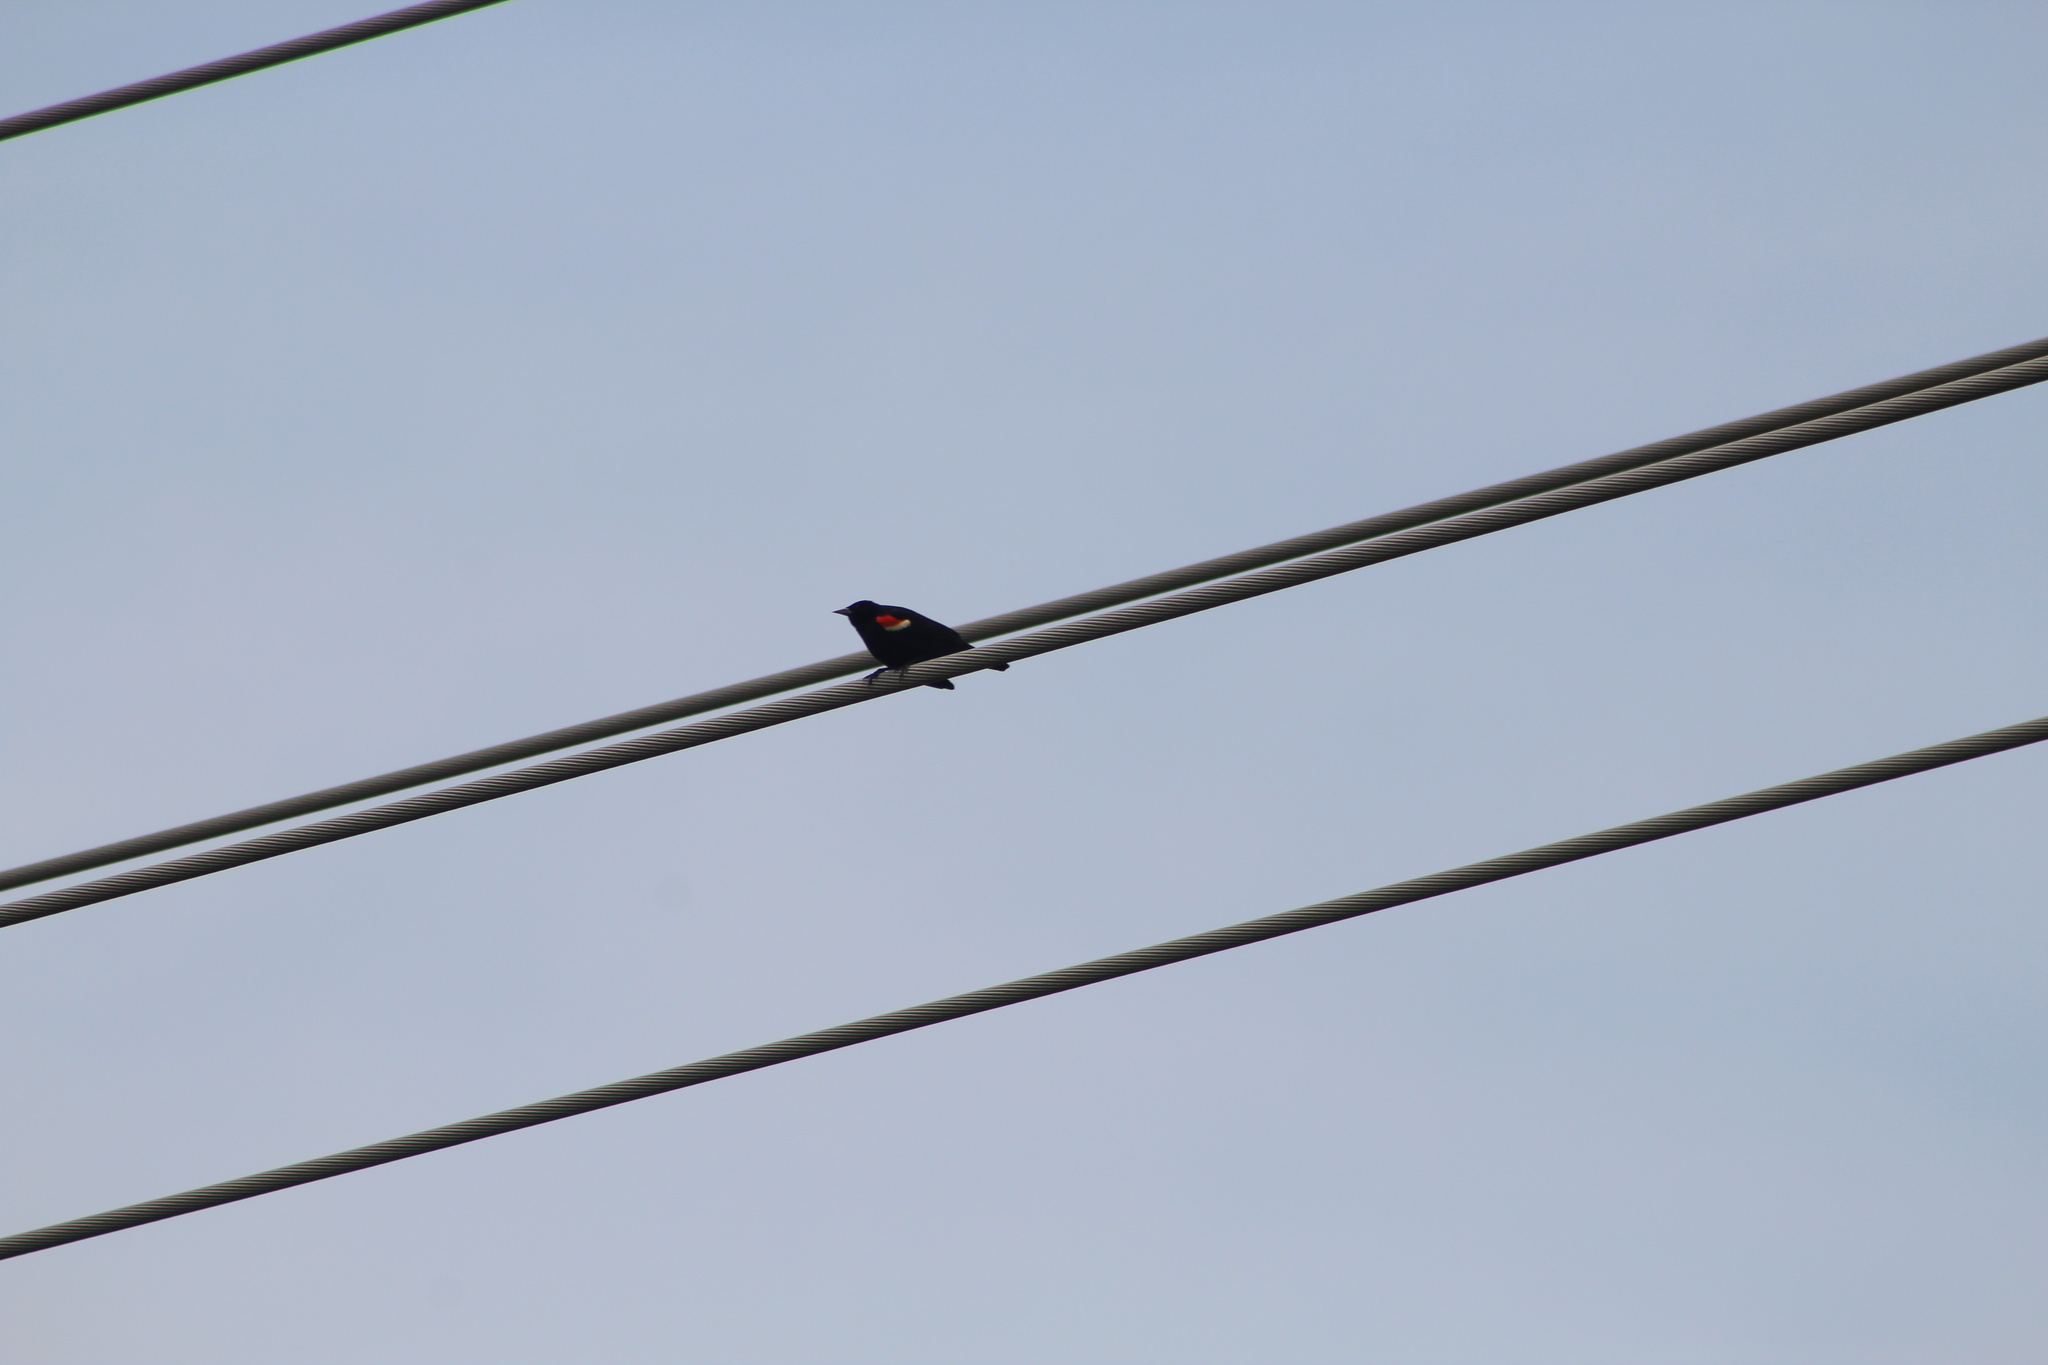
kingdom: Animalia
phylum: Chordata
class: Aves
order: Passeriformes
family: Icteridae
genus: Agelaius
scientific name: Agelaius phoeniceus
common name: Red-winged blackbird
